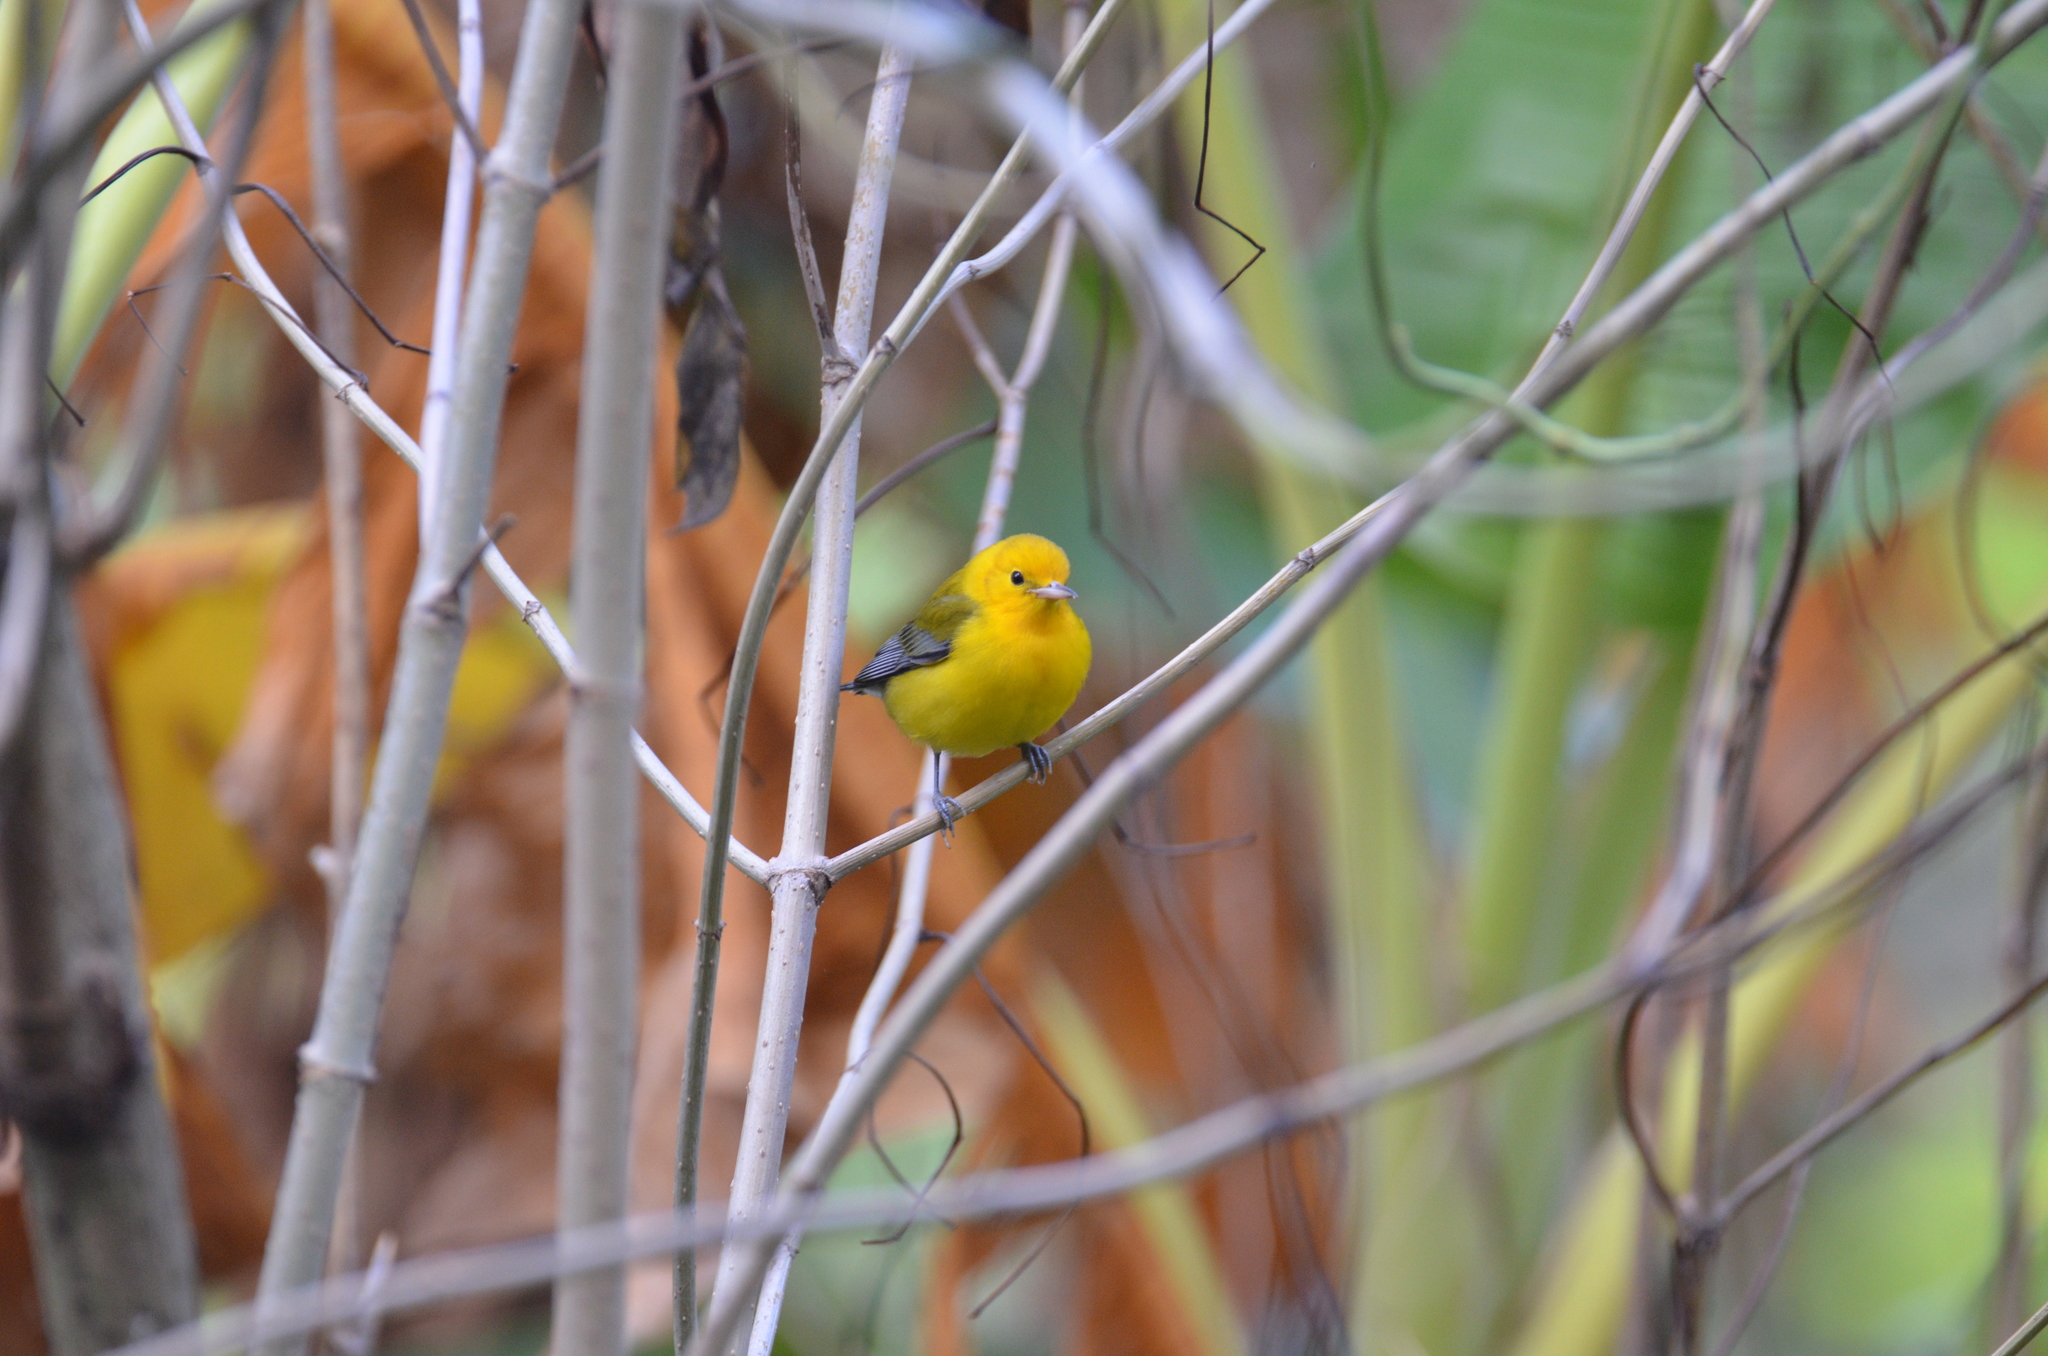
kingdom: Animalia
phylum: Chordata
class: Aves
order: Passeriformes
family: Parulidae
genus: Protonotaria
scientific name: Protonotaria citrea
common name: Prothonotary warbler
